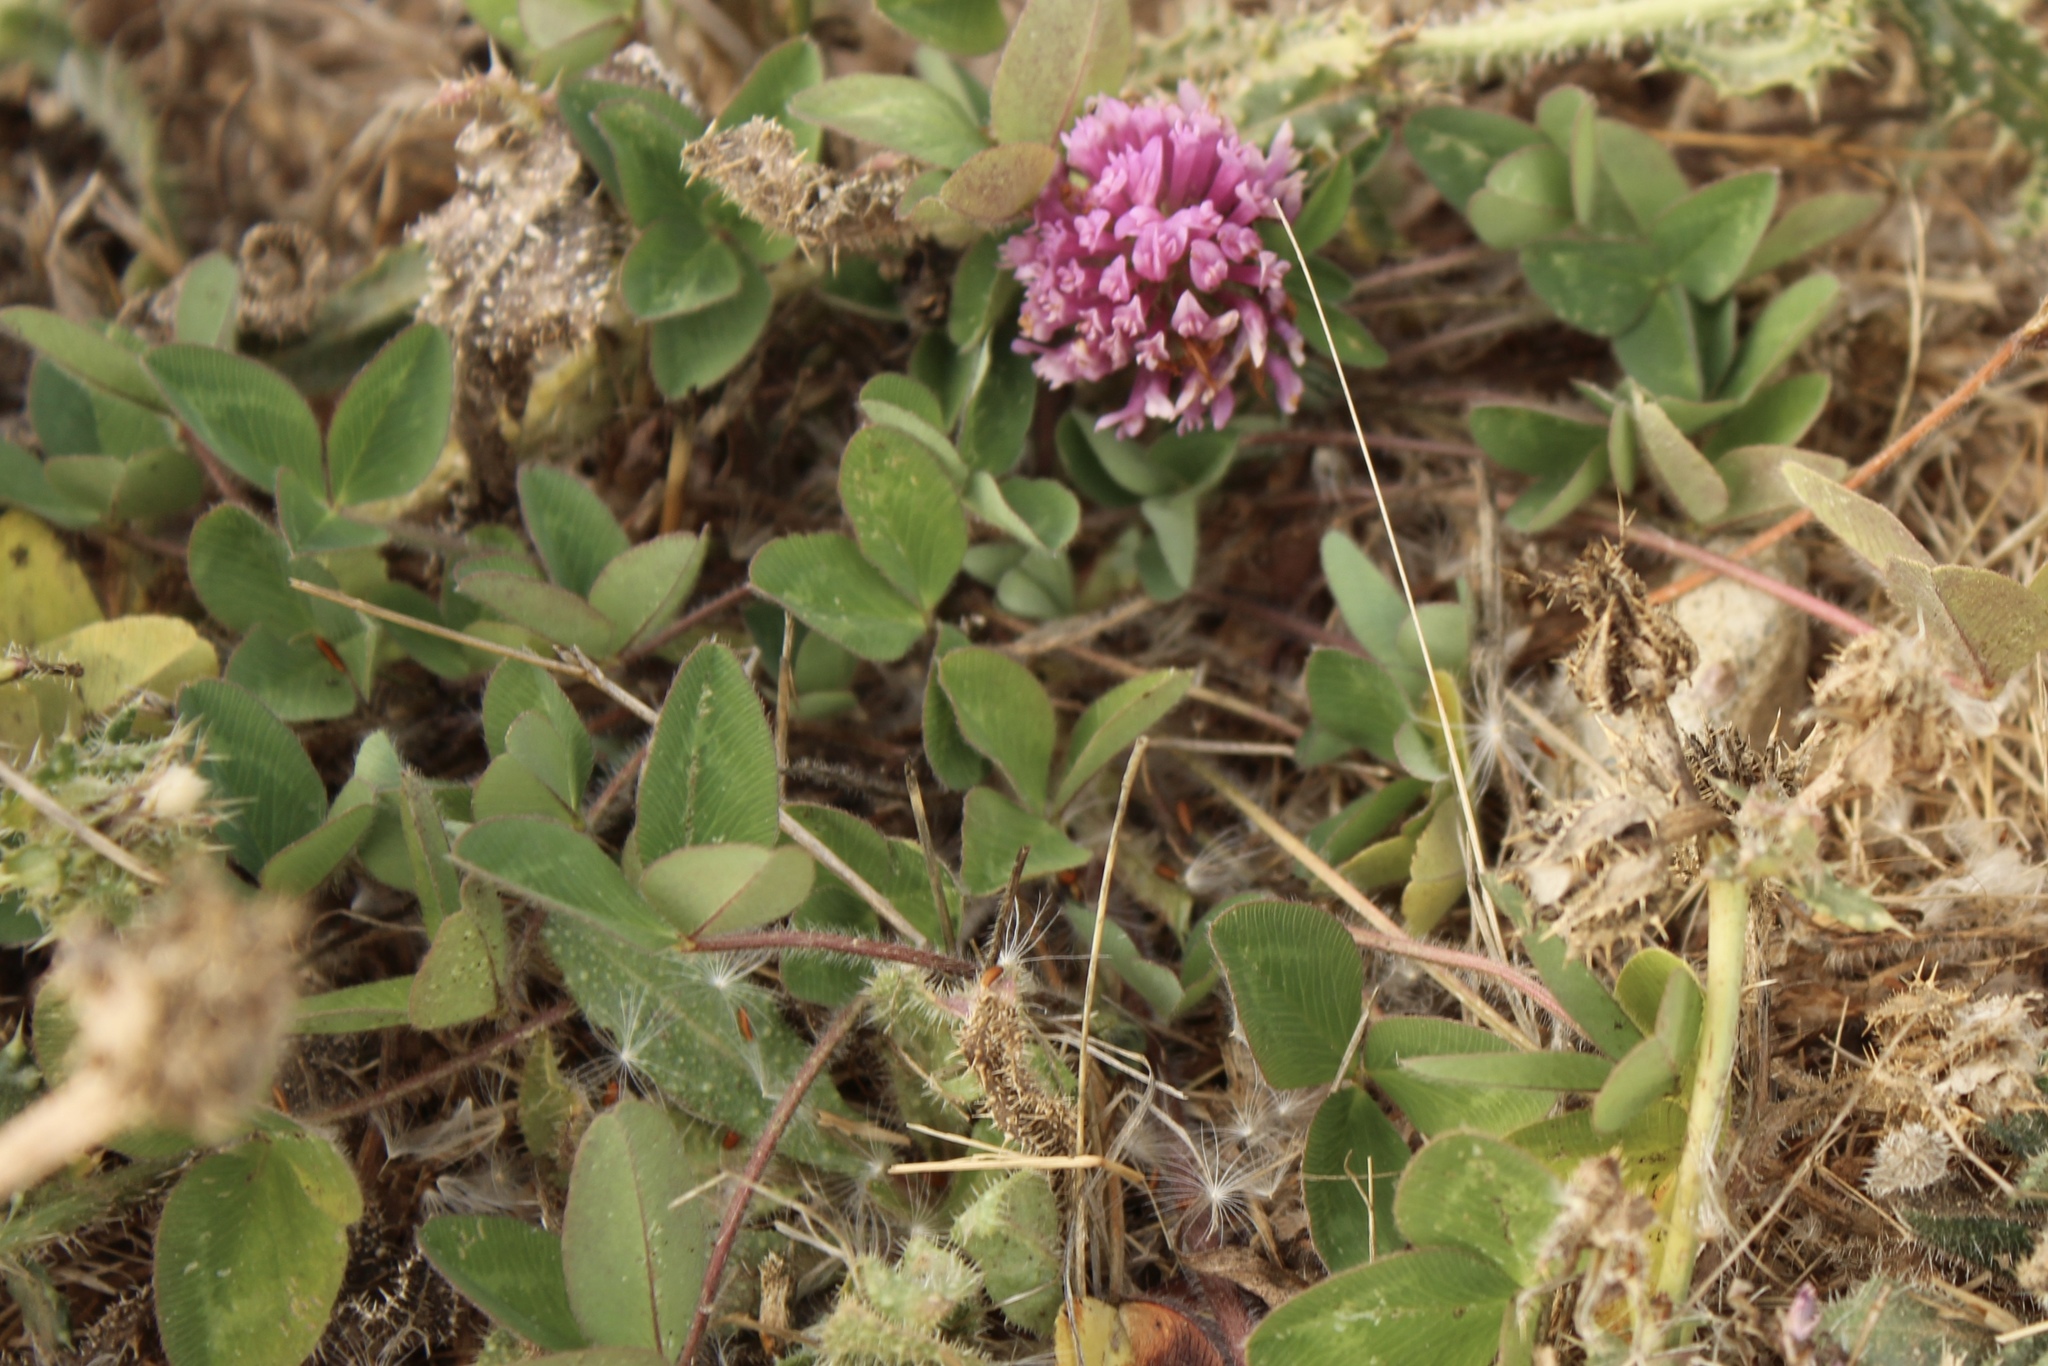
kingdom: Plantae
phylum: Tracheophyta
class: Magnoliopsida
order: Fabales
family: Fabaceae
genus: Trifolium
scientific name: Trifolium pratense
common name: Red clover
